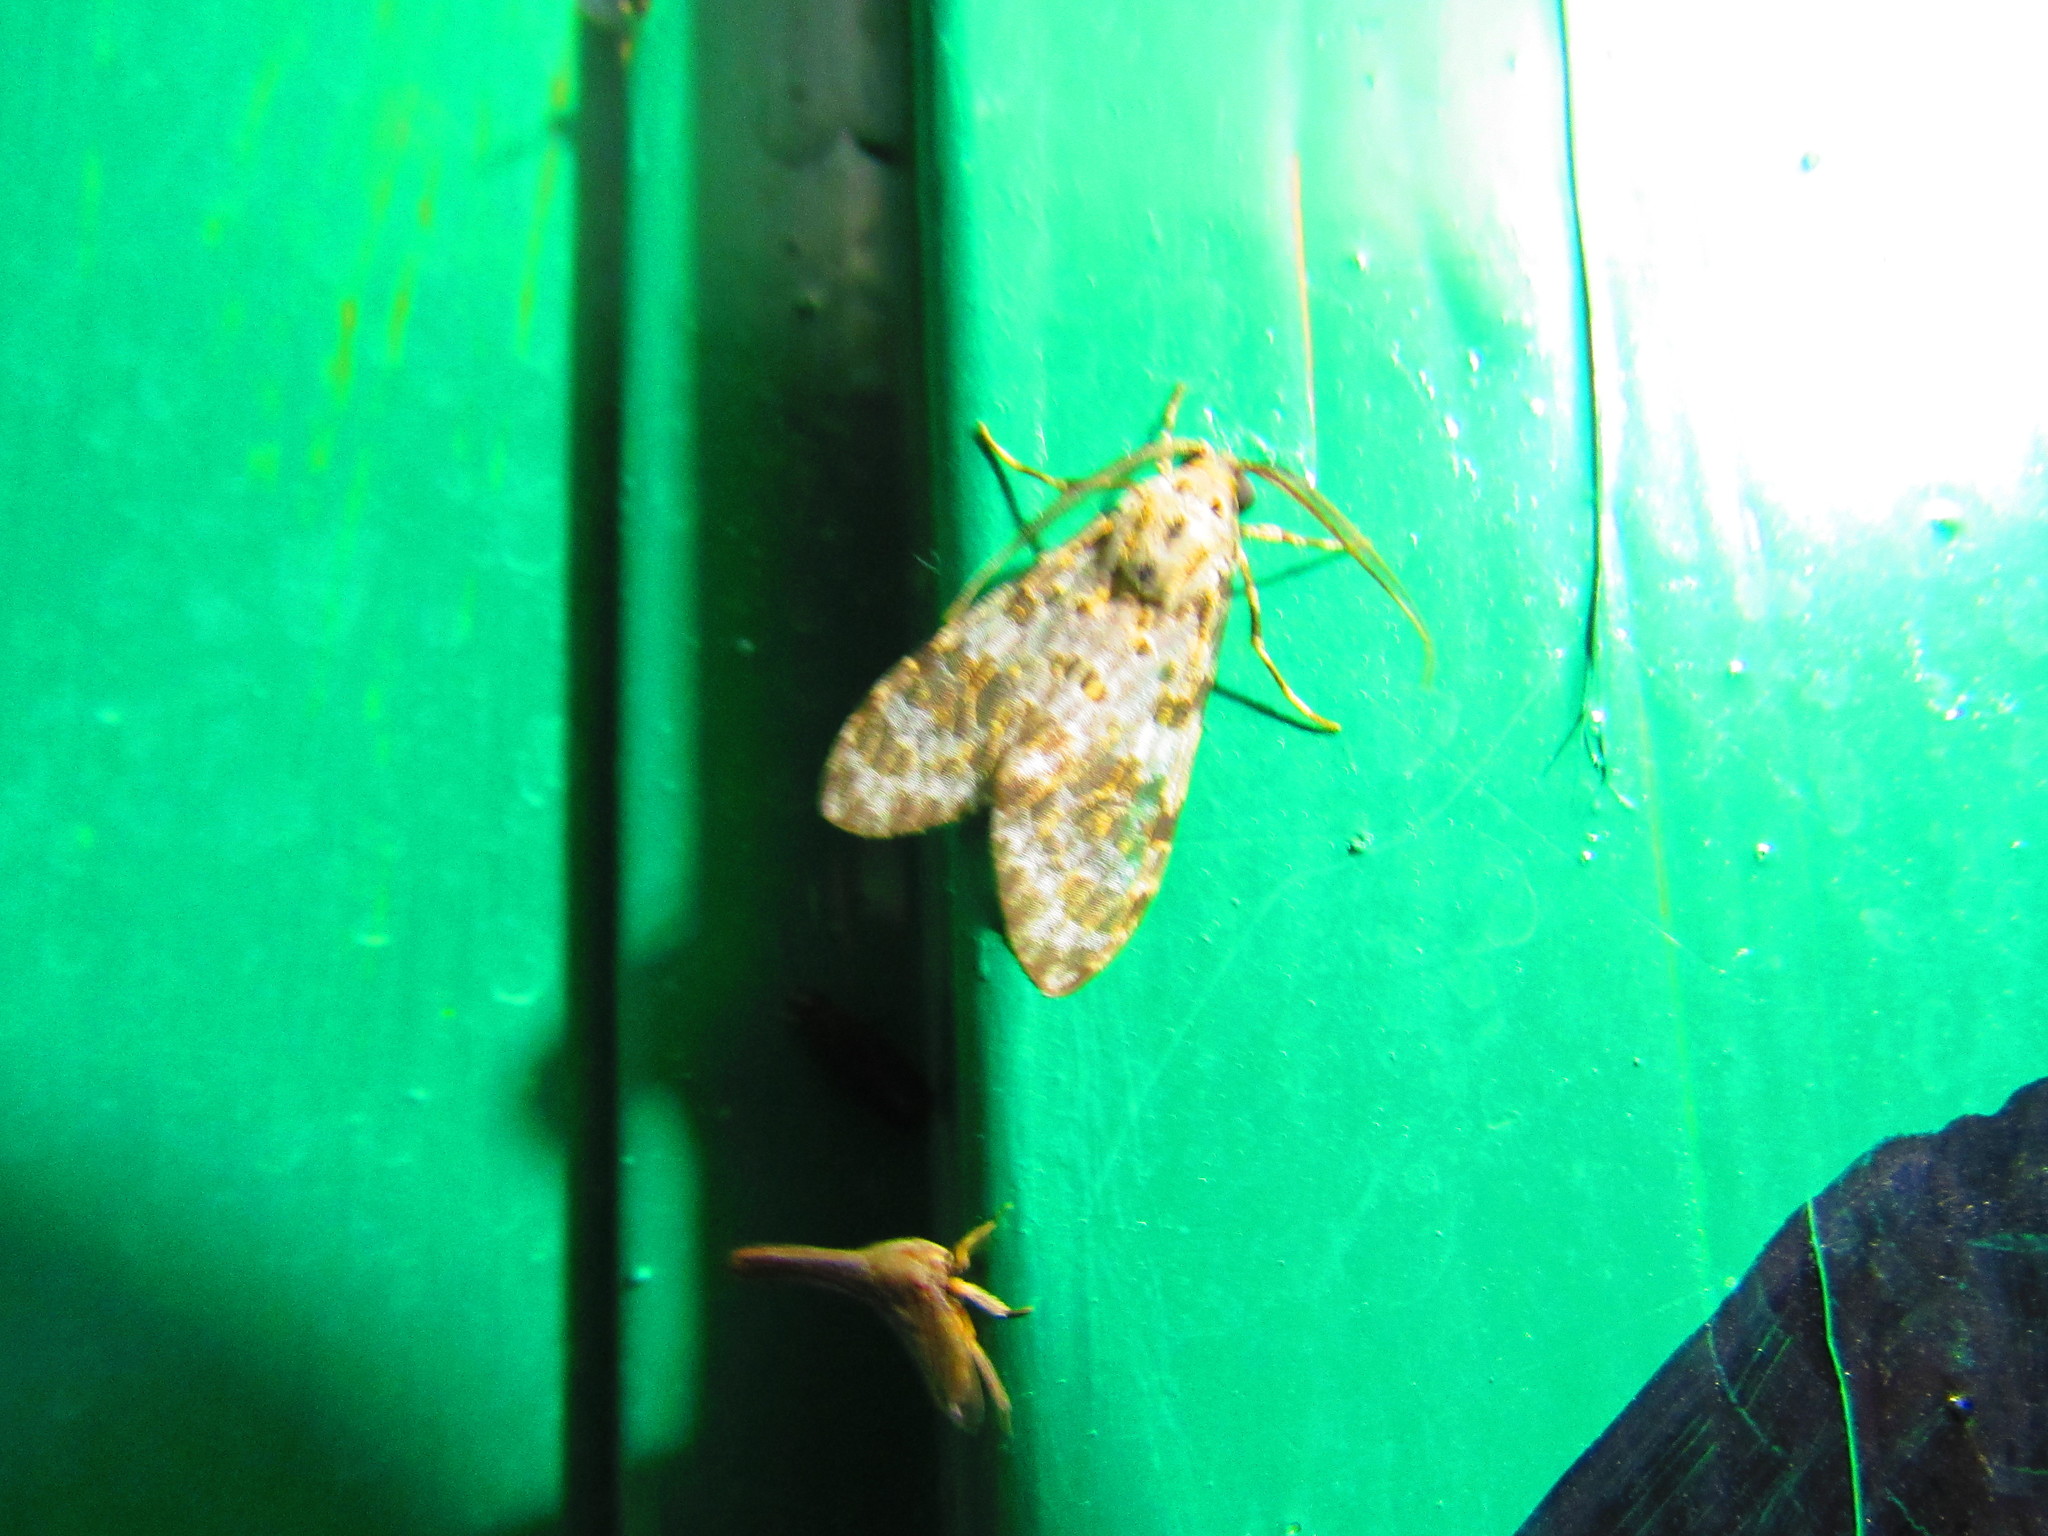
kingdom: Animalia
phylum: Arthropoda
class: Insecta
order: Lepidoptera
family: Erebidae
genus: Eucereon
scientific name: Eucereon myrina
